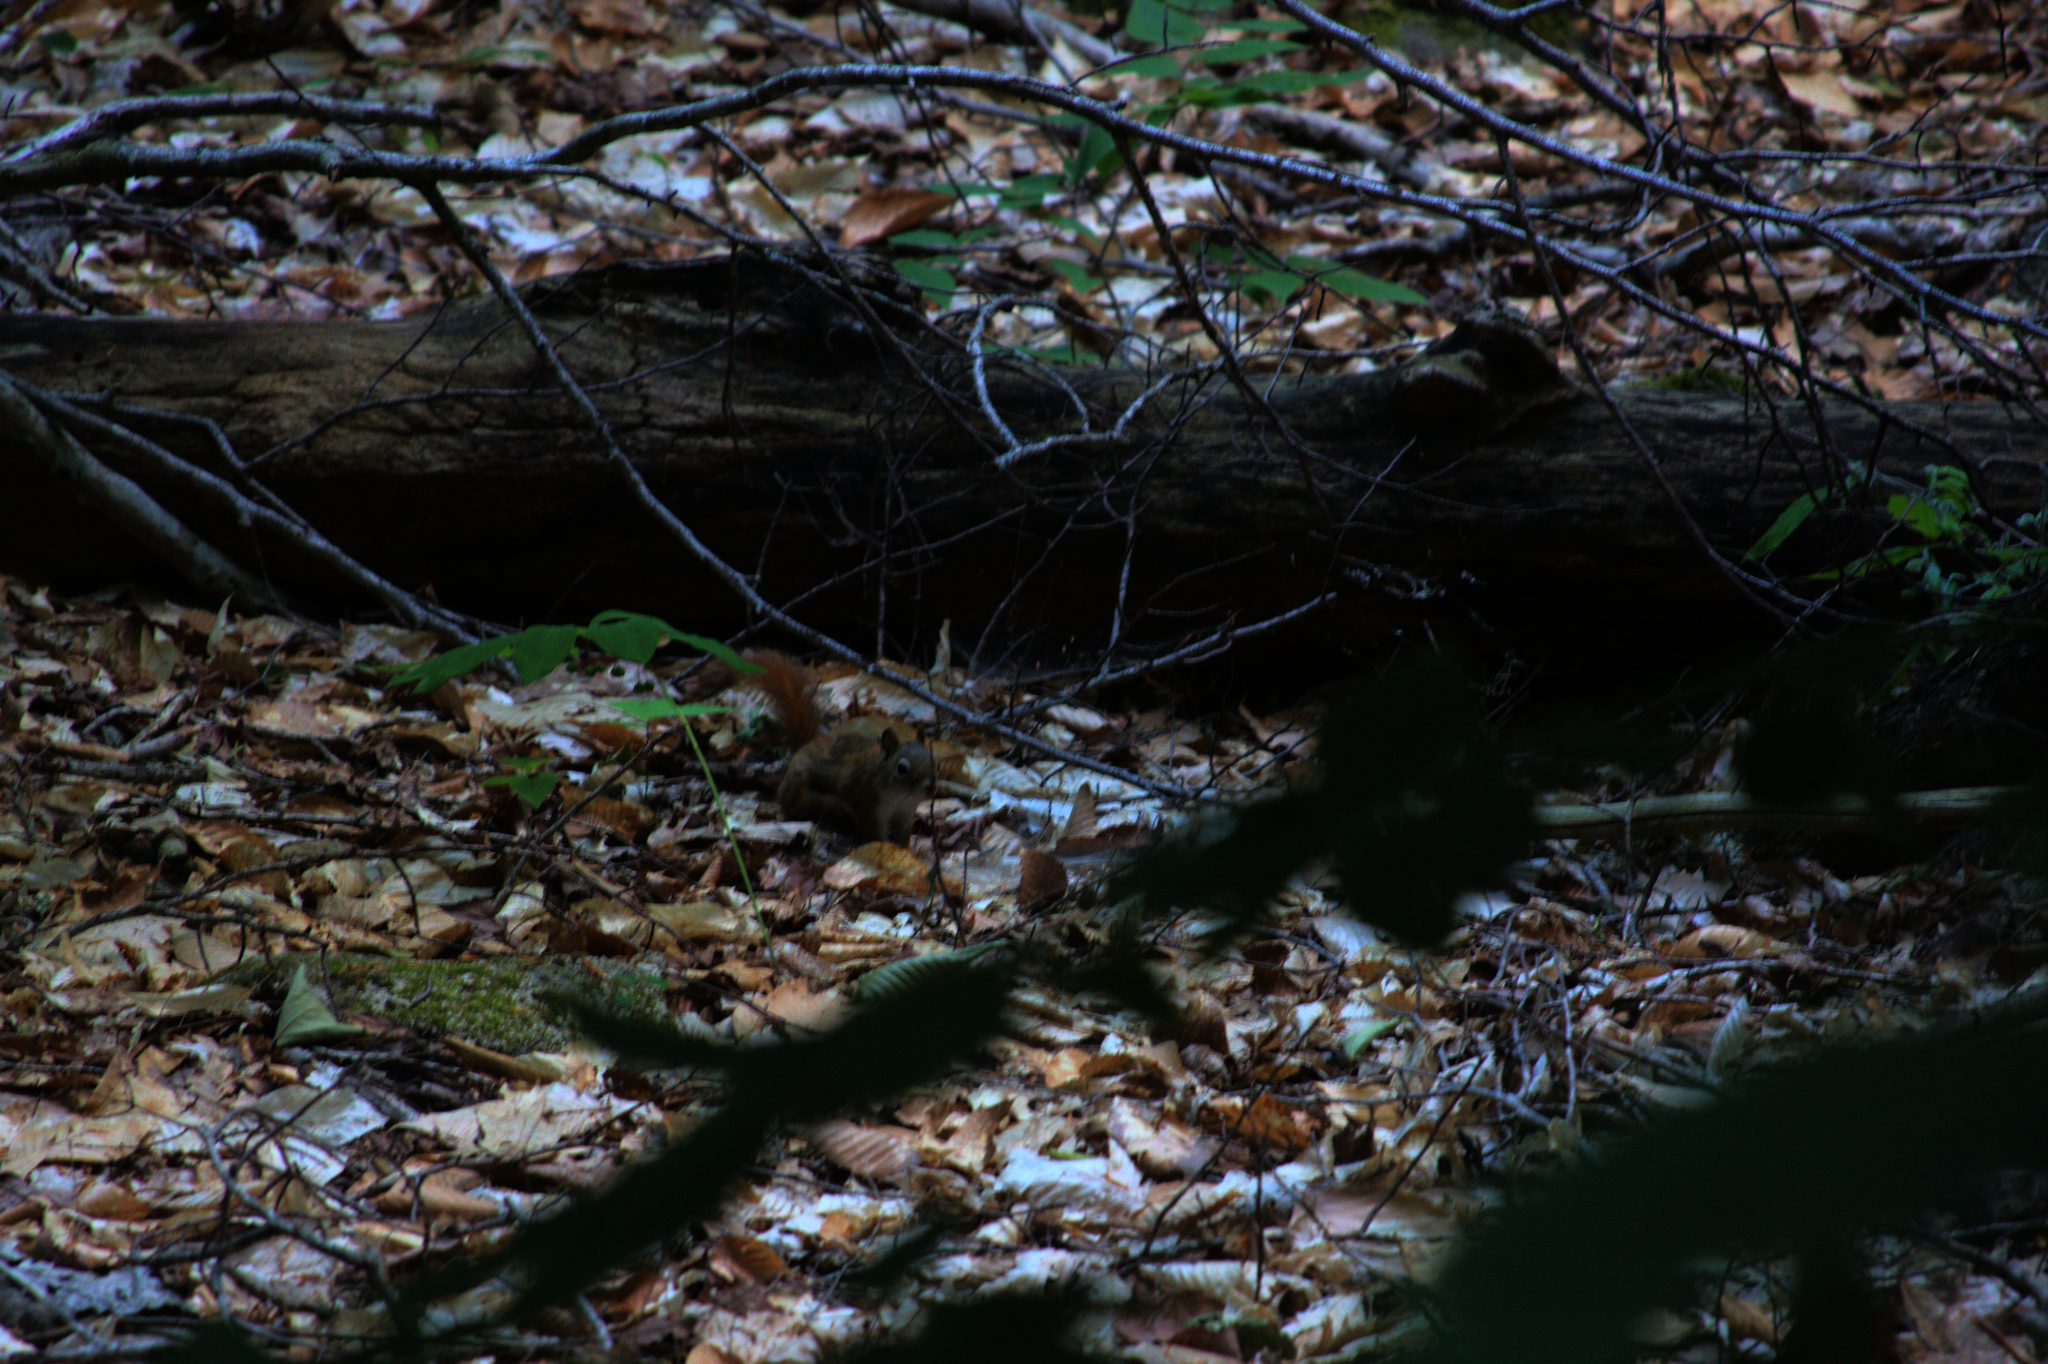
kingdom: Animalia
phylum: Chordata
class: Mammalia
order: Rodentia
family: Sciuridae
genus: Tamiasciurus
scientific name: Tamiasciurus hudsonicus
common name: Red squirrel
